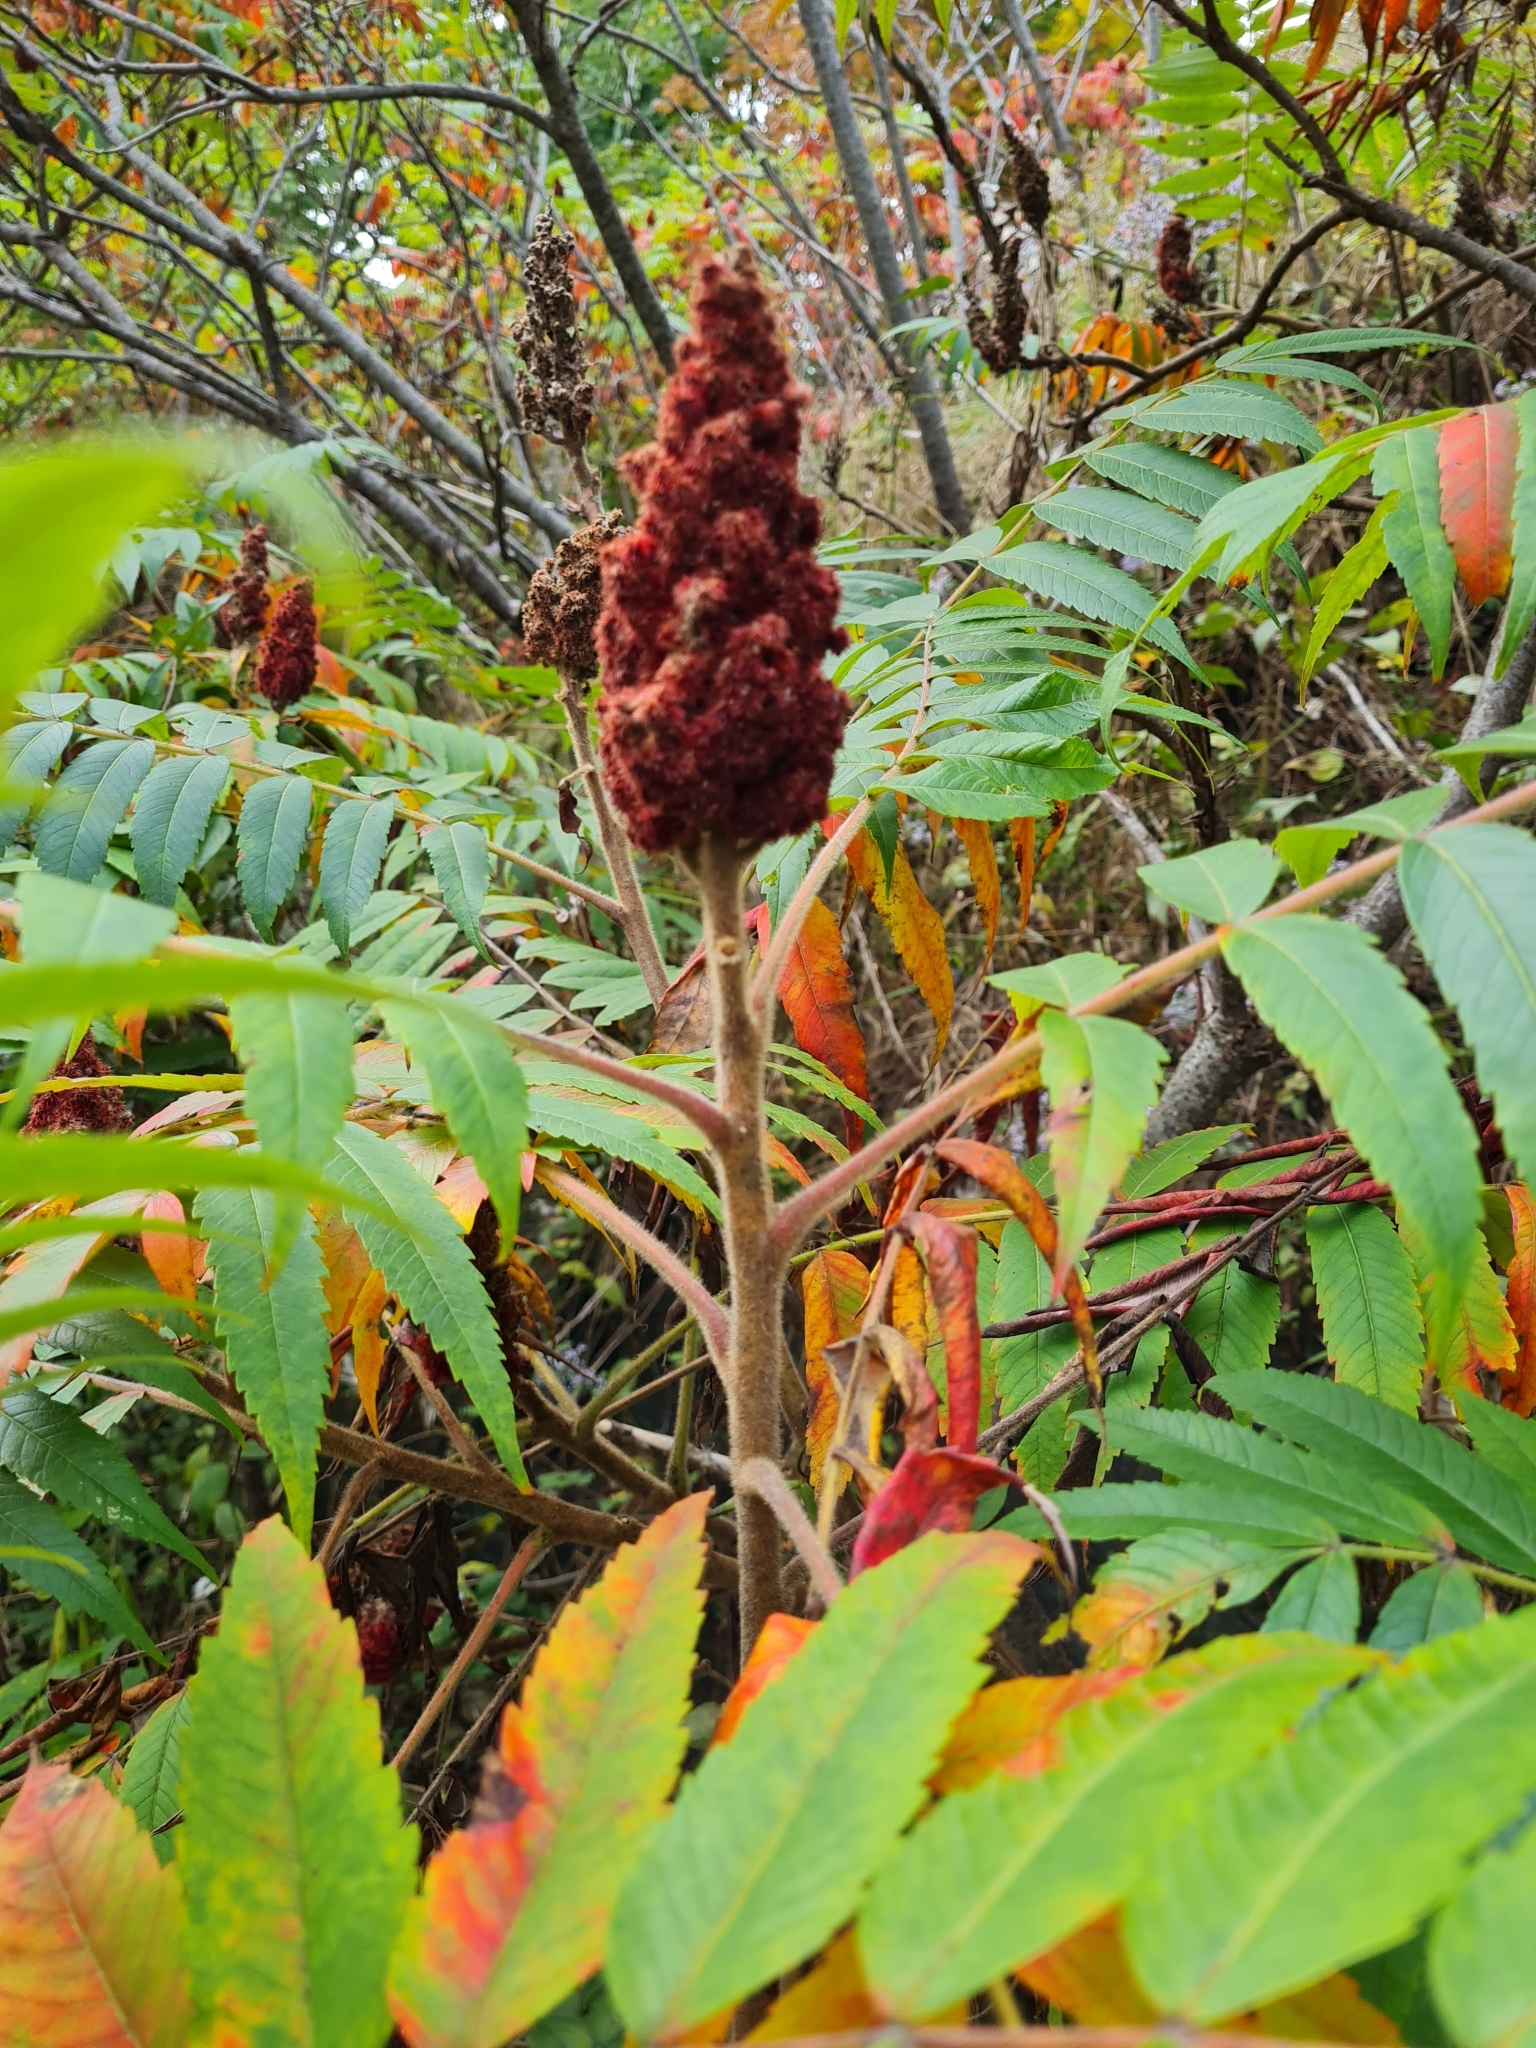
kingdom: Plantae
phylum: Tracheophyta
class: Magnoliopsida
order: Sapindales
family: Anacardiaceae
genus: Rhus
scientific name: Rhus typhina
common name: Staghorn sumac
